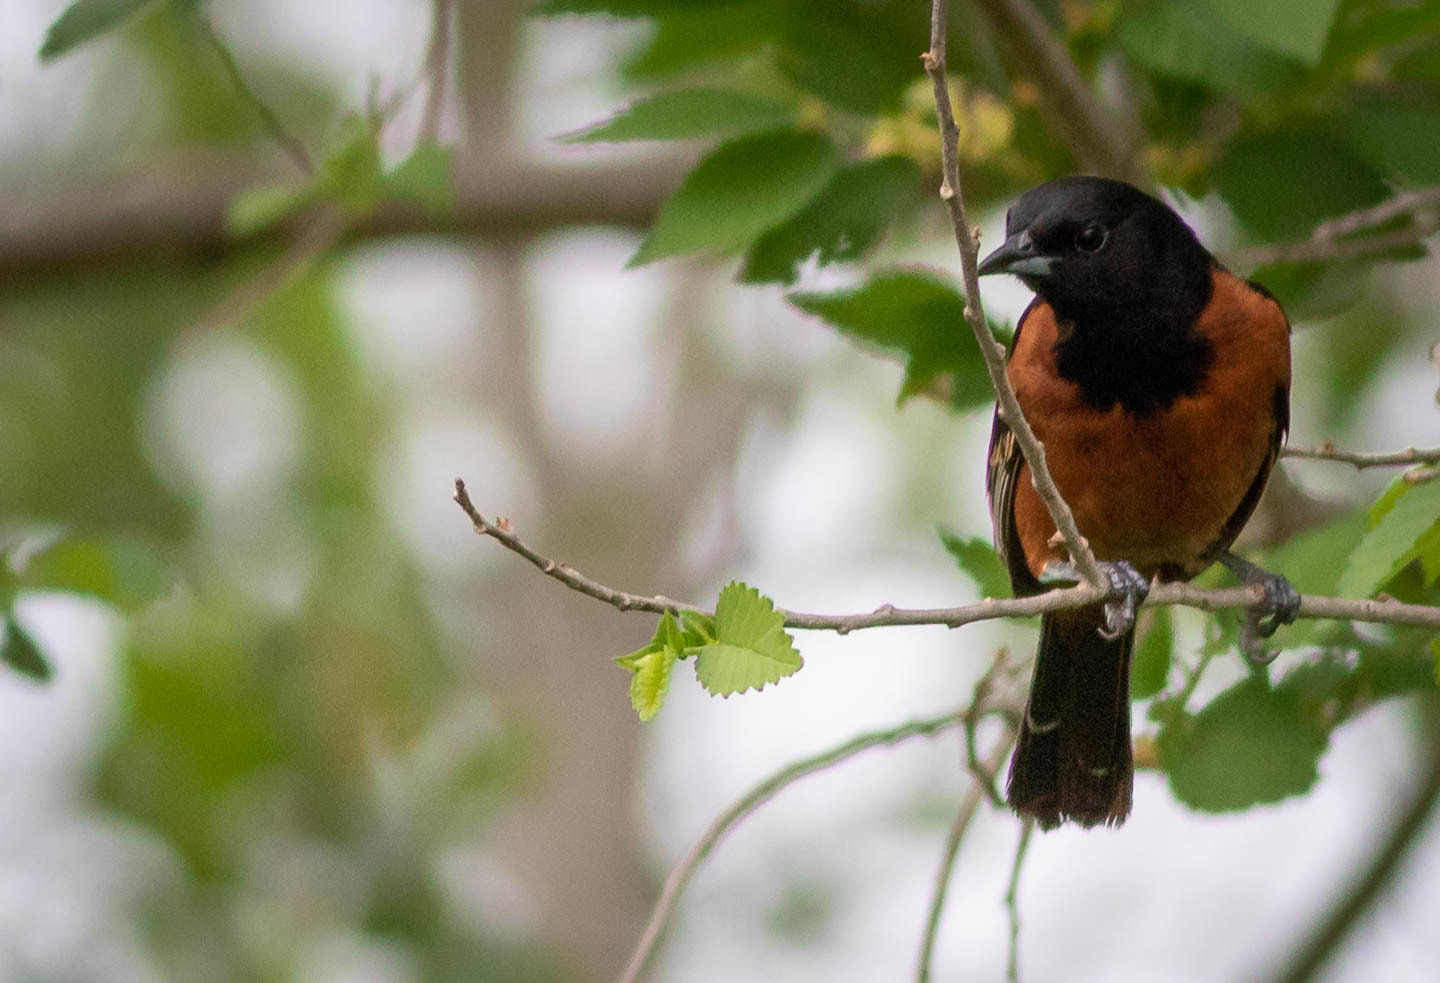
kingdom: Animalia
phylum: Chordata
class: Aves
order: Passeriformes
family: Icteridae
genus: Icterus
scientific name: Icterus spurius
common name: Orchard oriole
